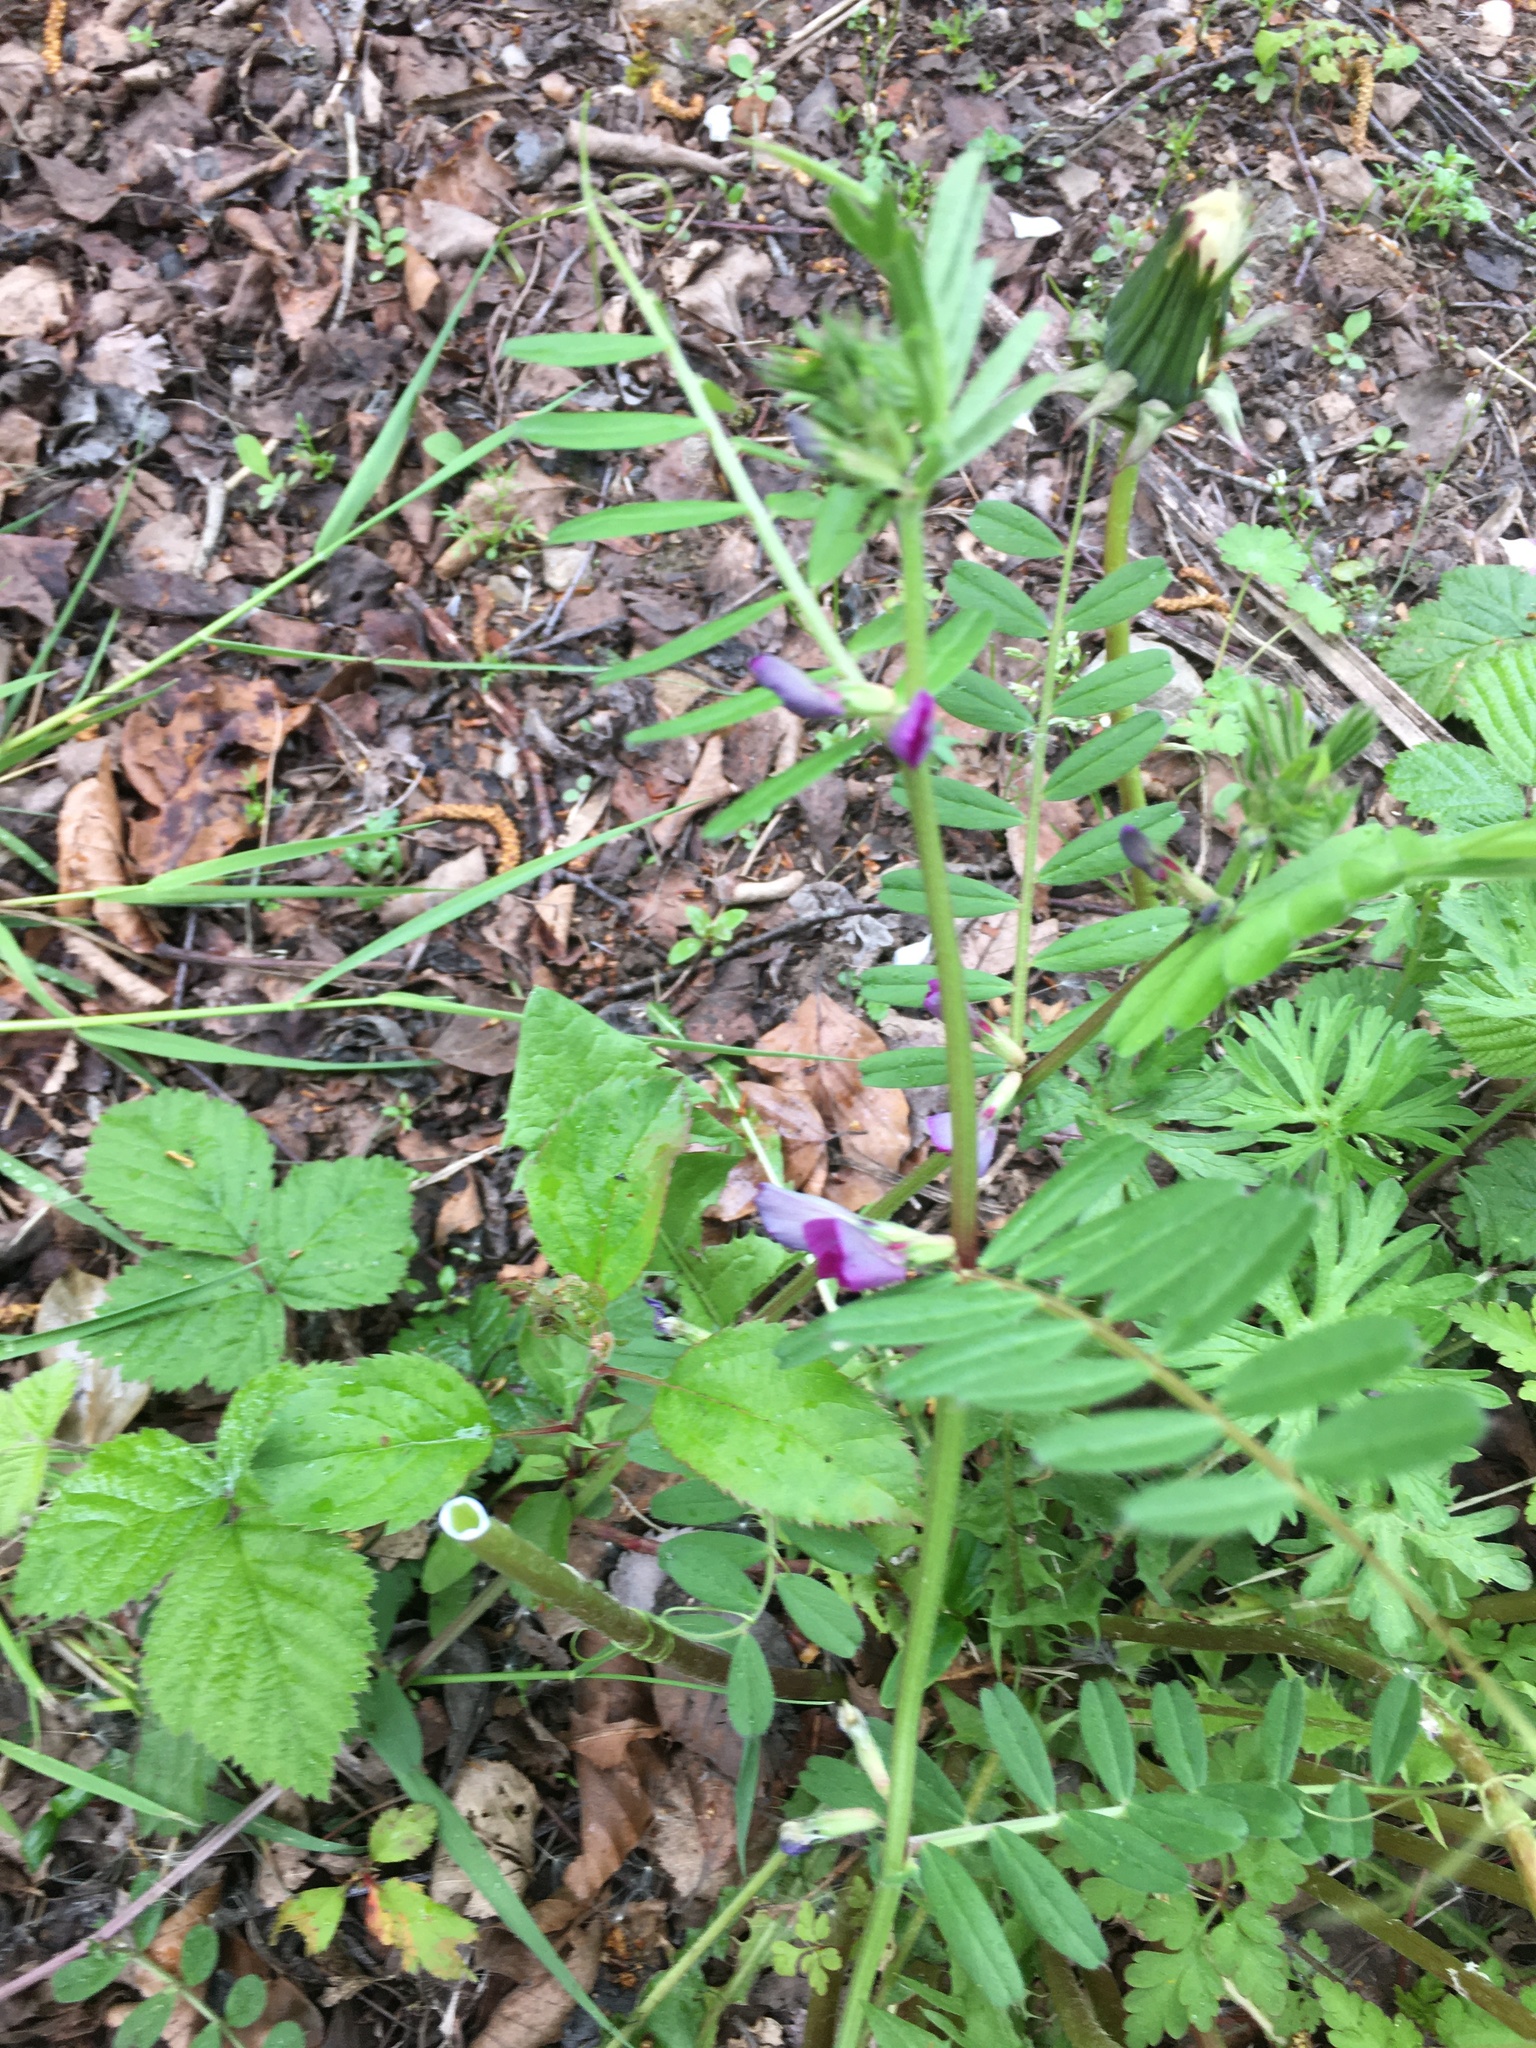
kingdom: Plantae
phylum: Tracheophyta
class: Magnoliopsida
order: Fabales
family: Fabaceae
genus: Vicia
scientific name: Vicia sativa
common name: Garden vetch
